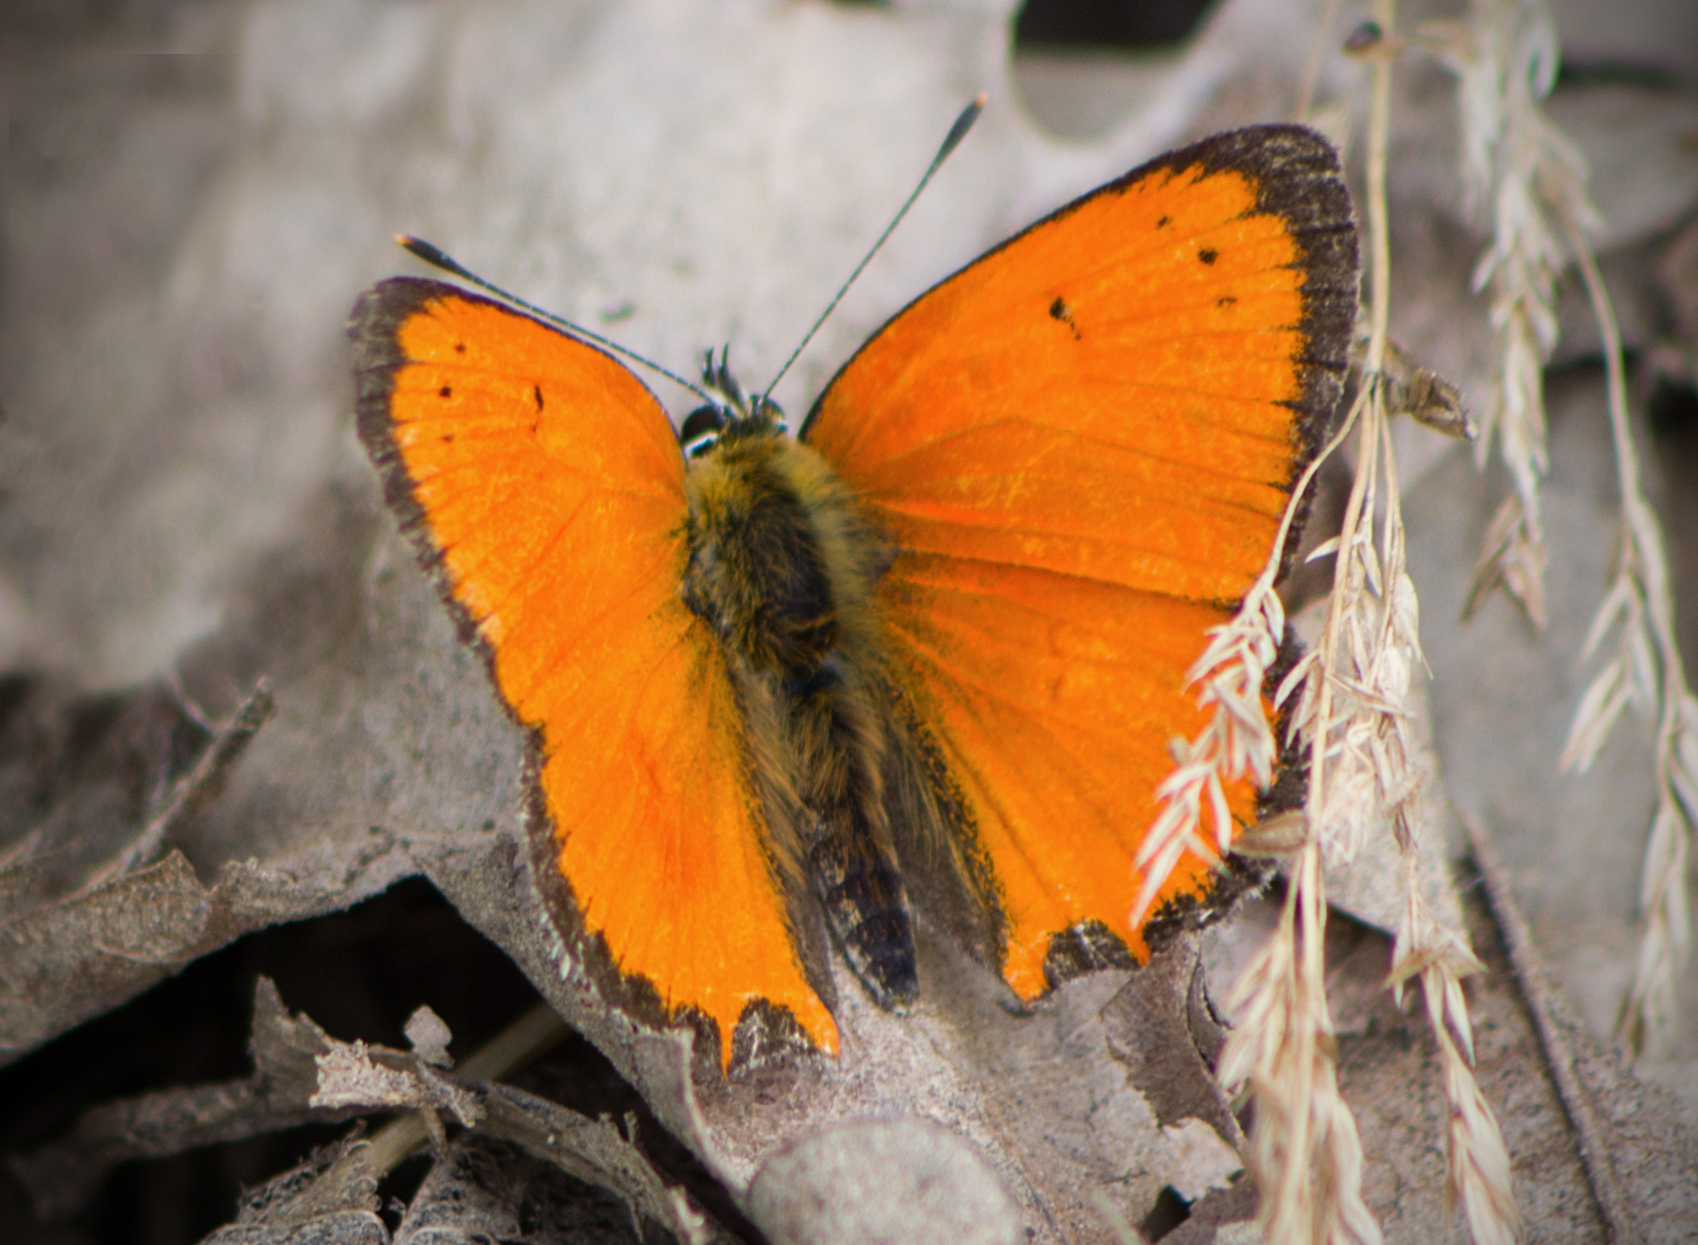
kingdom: Animalia
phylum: Arthropoda
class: Insecta
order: Lepidoptera
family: Lycaenidae
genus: Polyommatus
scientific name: Polyommatus ottomanus
